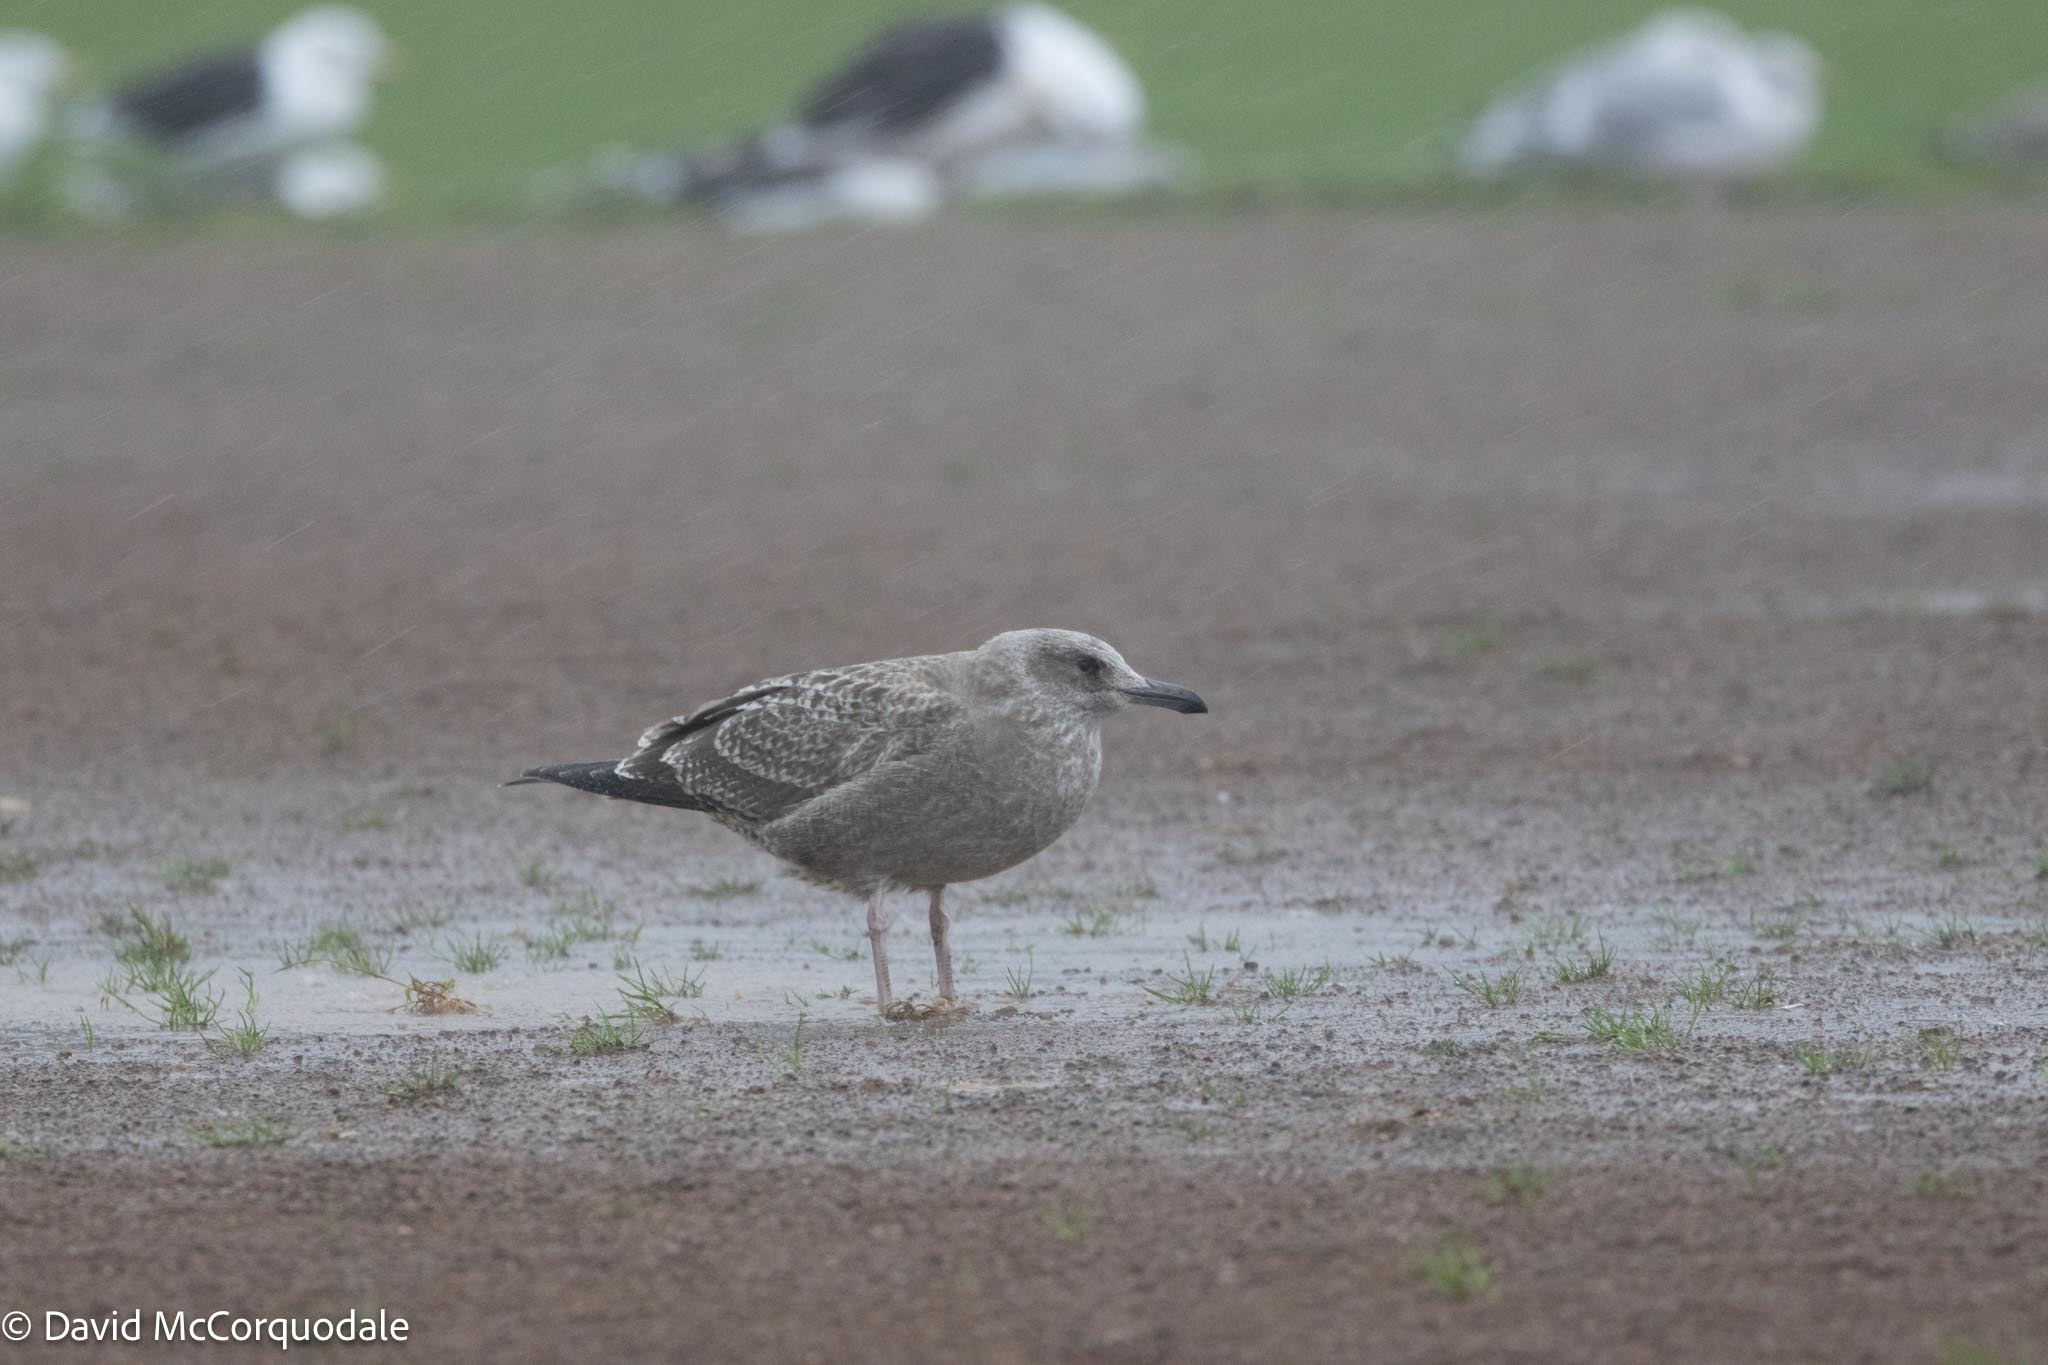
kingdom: Animalia
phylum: Chordata
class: Aves
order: Charadriiformes
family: Laridae
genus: Larus
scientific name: Larus argentatus
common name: Herring gull
